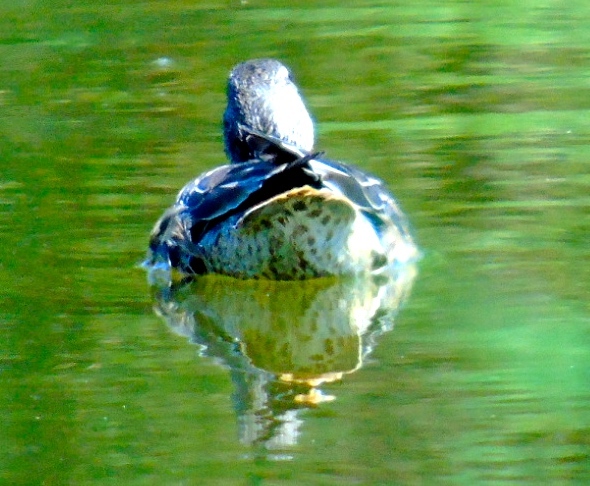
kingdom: Animalia
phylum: Chordata
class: Aves
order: Anseriformes
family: Anatidae
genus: Spatula
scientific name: Spatula discors
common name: Blue-winged teal
